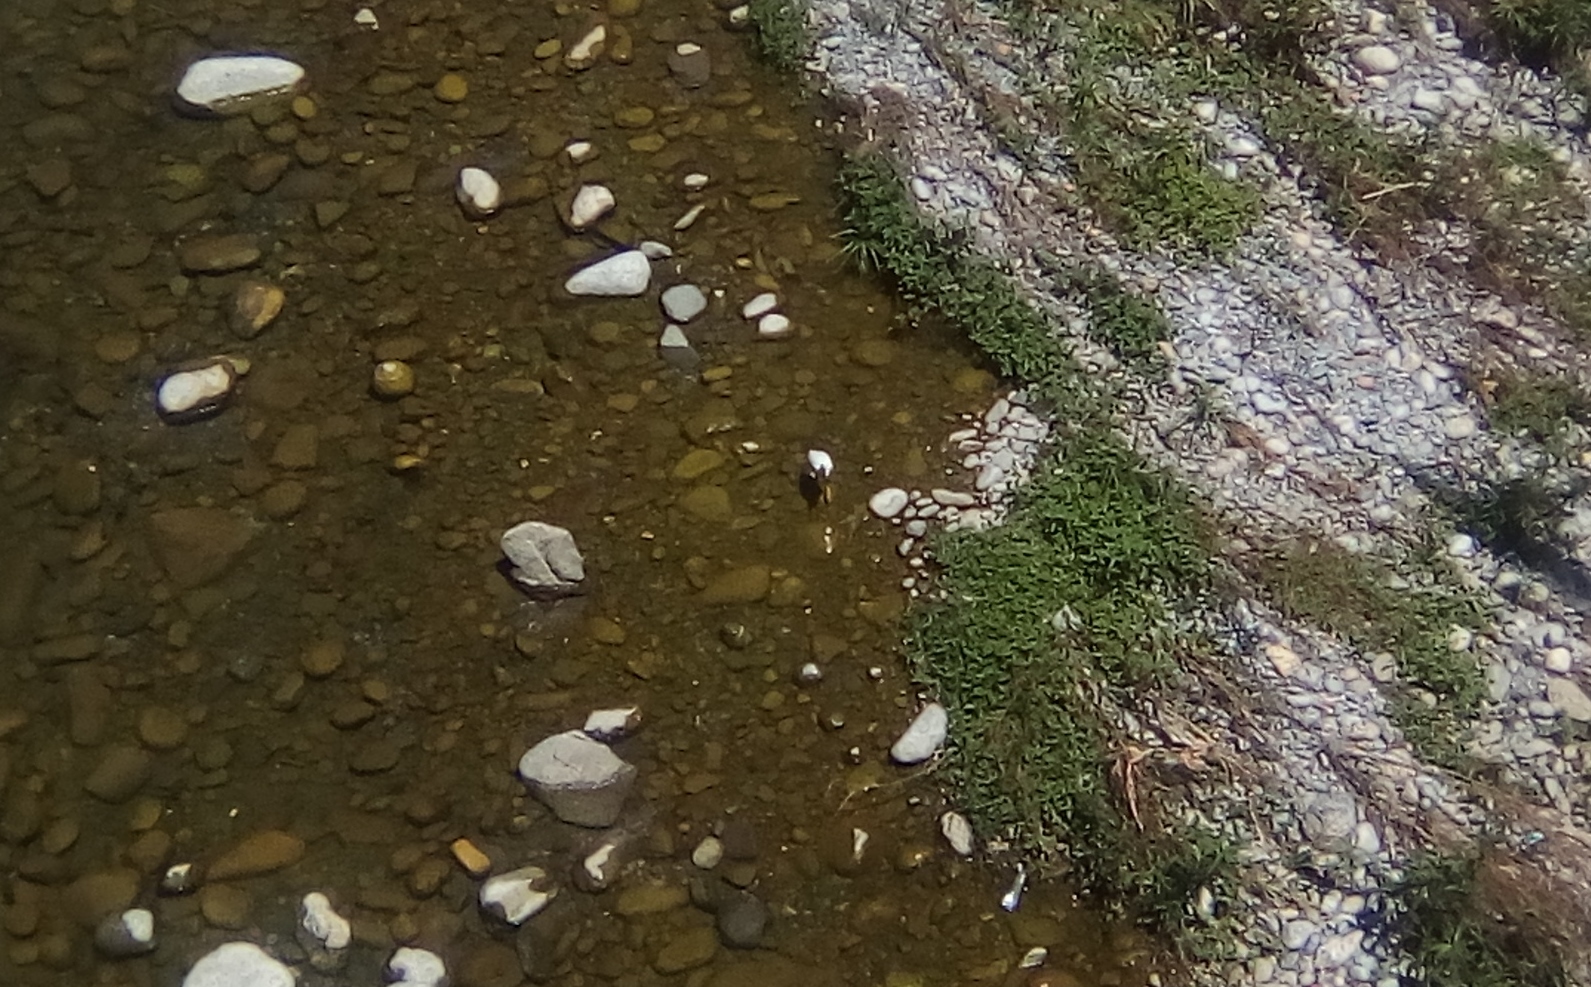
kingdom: Animalia
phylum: Chordata
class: Aves
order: Pelecaniformes
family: Ardeidae
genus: Egretta
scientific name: Egretta thula
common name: Snowy egret
